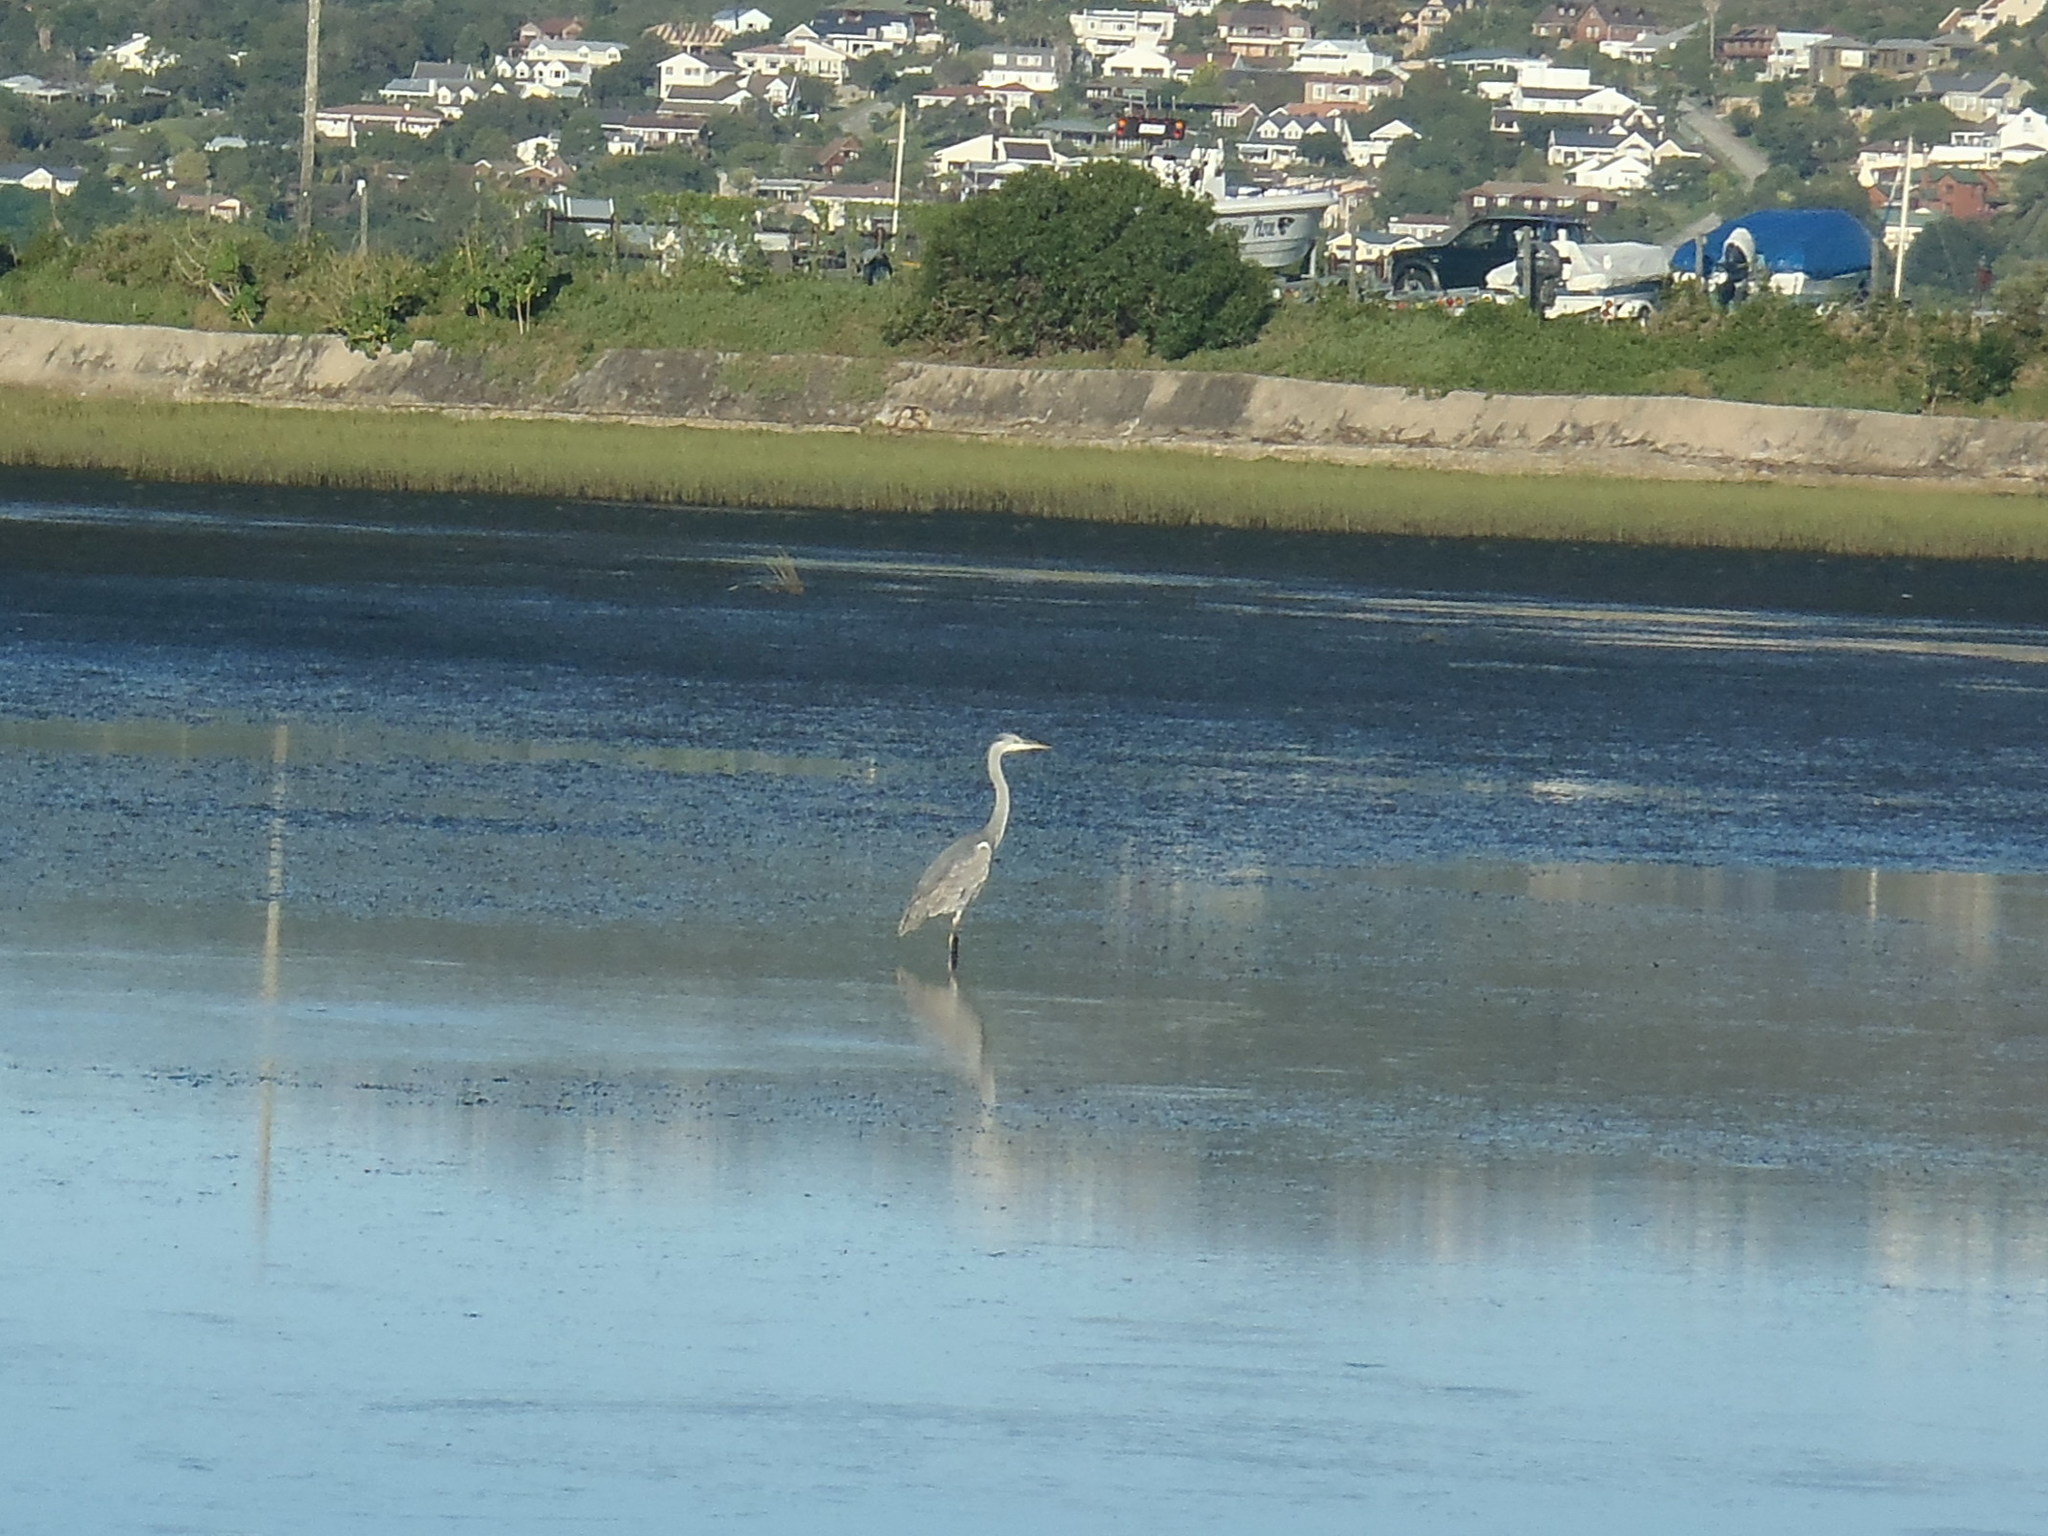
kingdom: Animalia
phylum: Chordata
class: Aves
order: Pelecaniformes
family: Ardeidae
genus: Ardea
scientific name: Ardea melanocephala
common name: Black-headed heron
